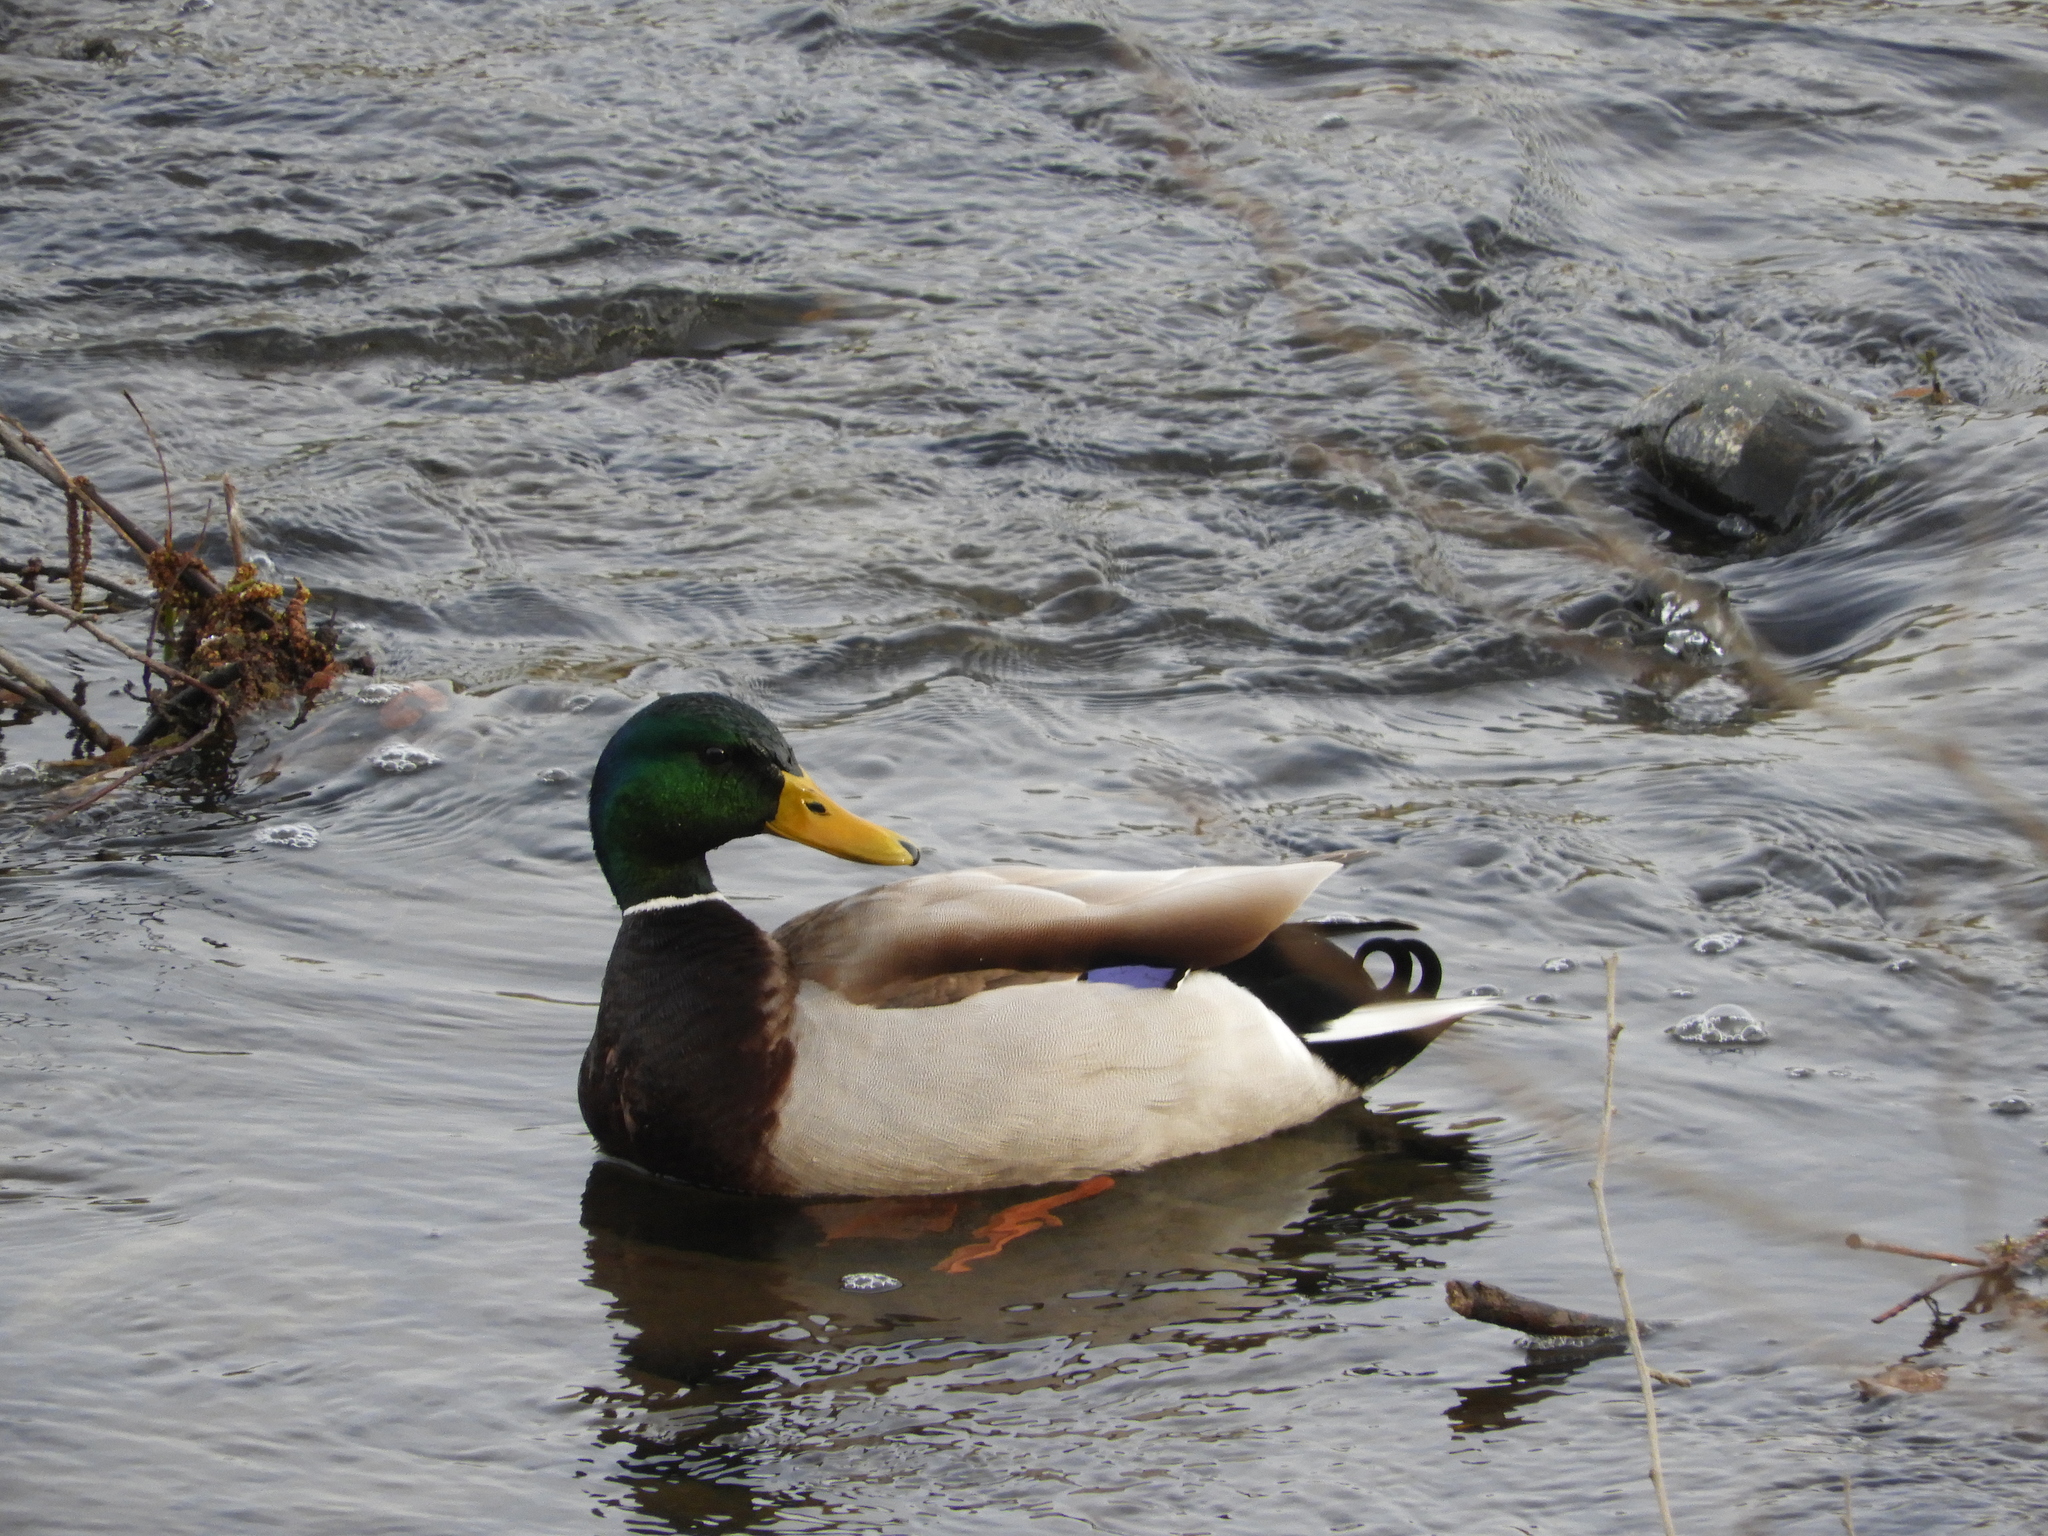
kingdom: Animalia
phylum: Chordata
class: Aves
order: Anseriformes
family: Anatidae
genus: Anas
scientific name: Anas platyrhynchos
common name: Mallard
